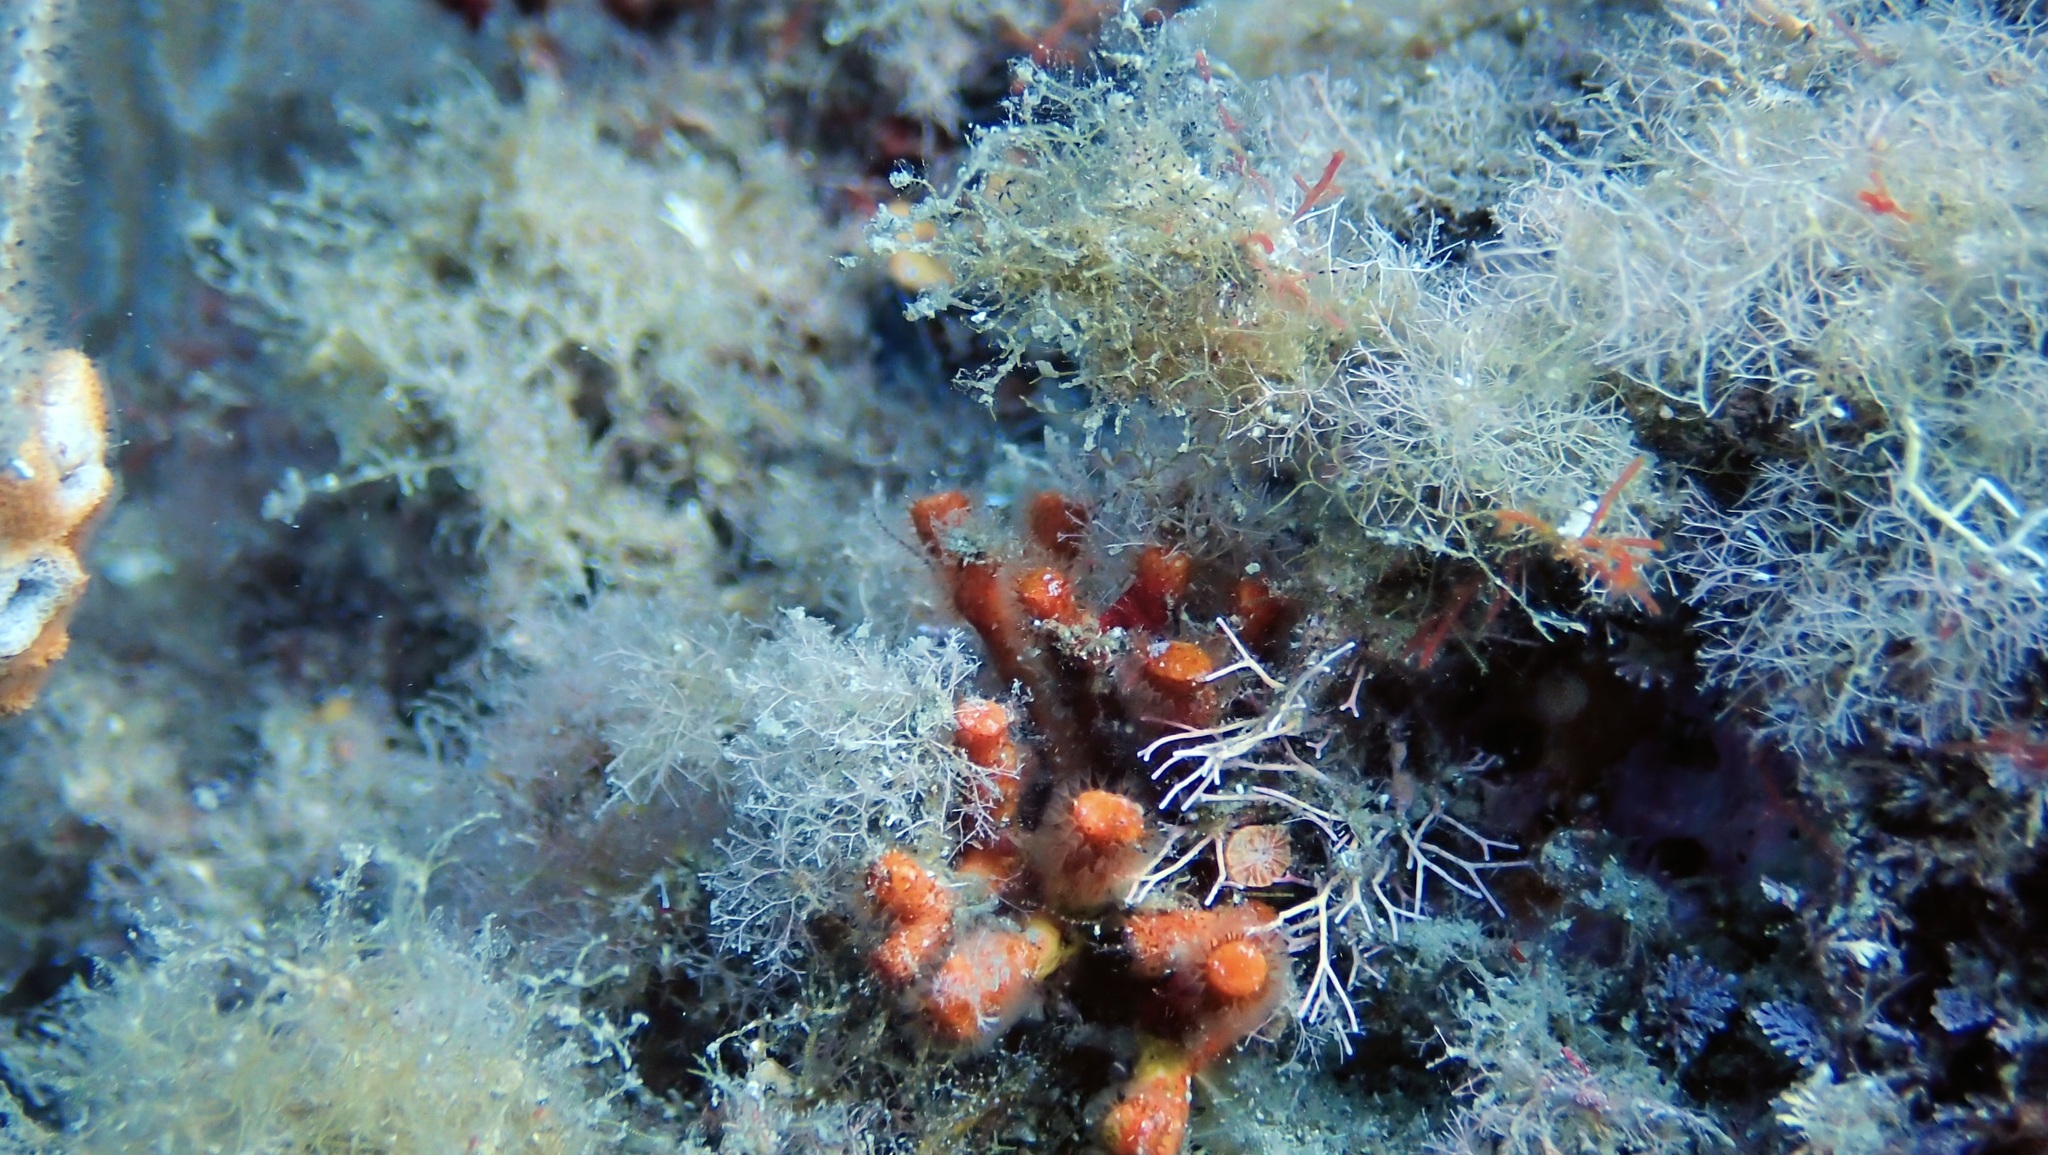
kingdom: Animalia
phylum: Bryozoa
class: Gymnolaemata
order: Cheilostomatida
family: Myriaporidae
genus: Myriapora
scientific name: Myriapora truncata
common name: False coral
